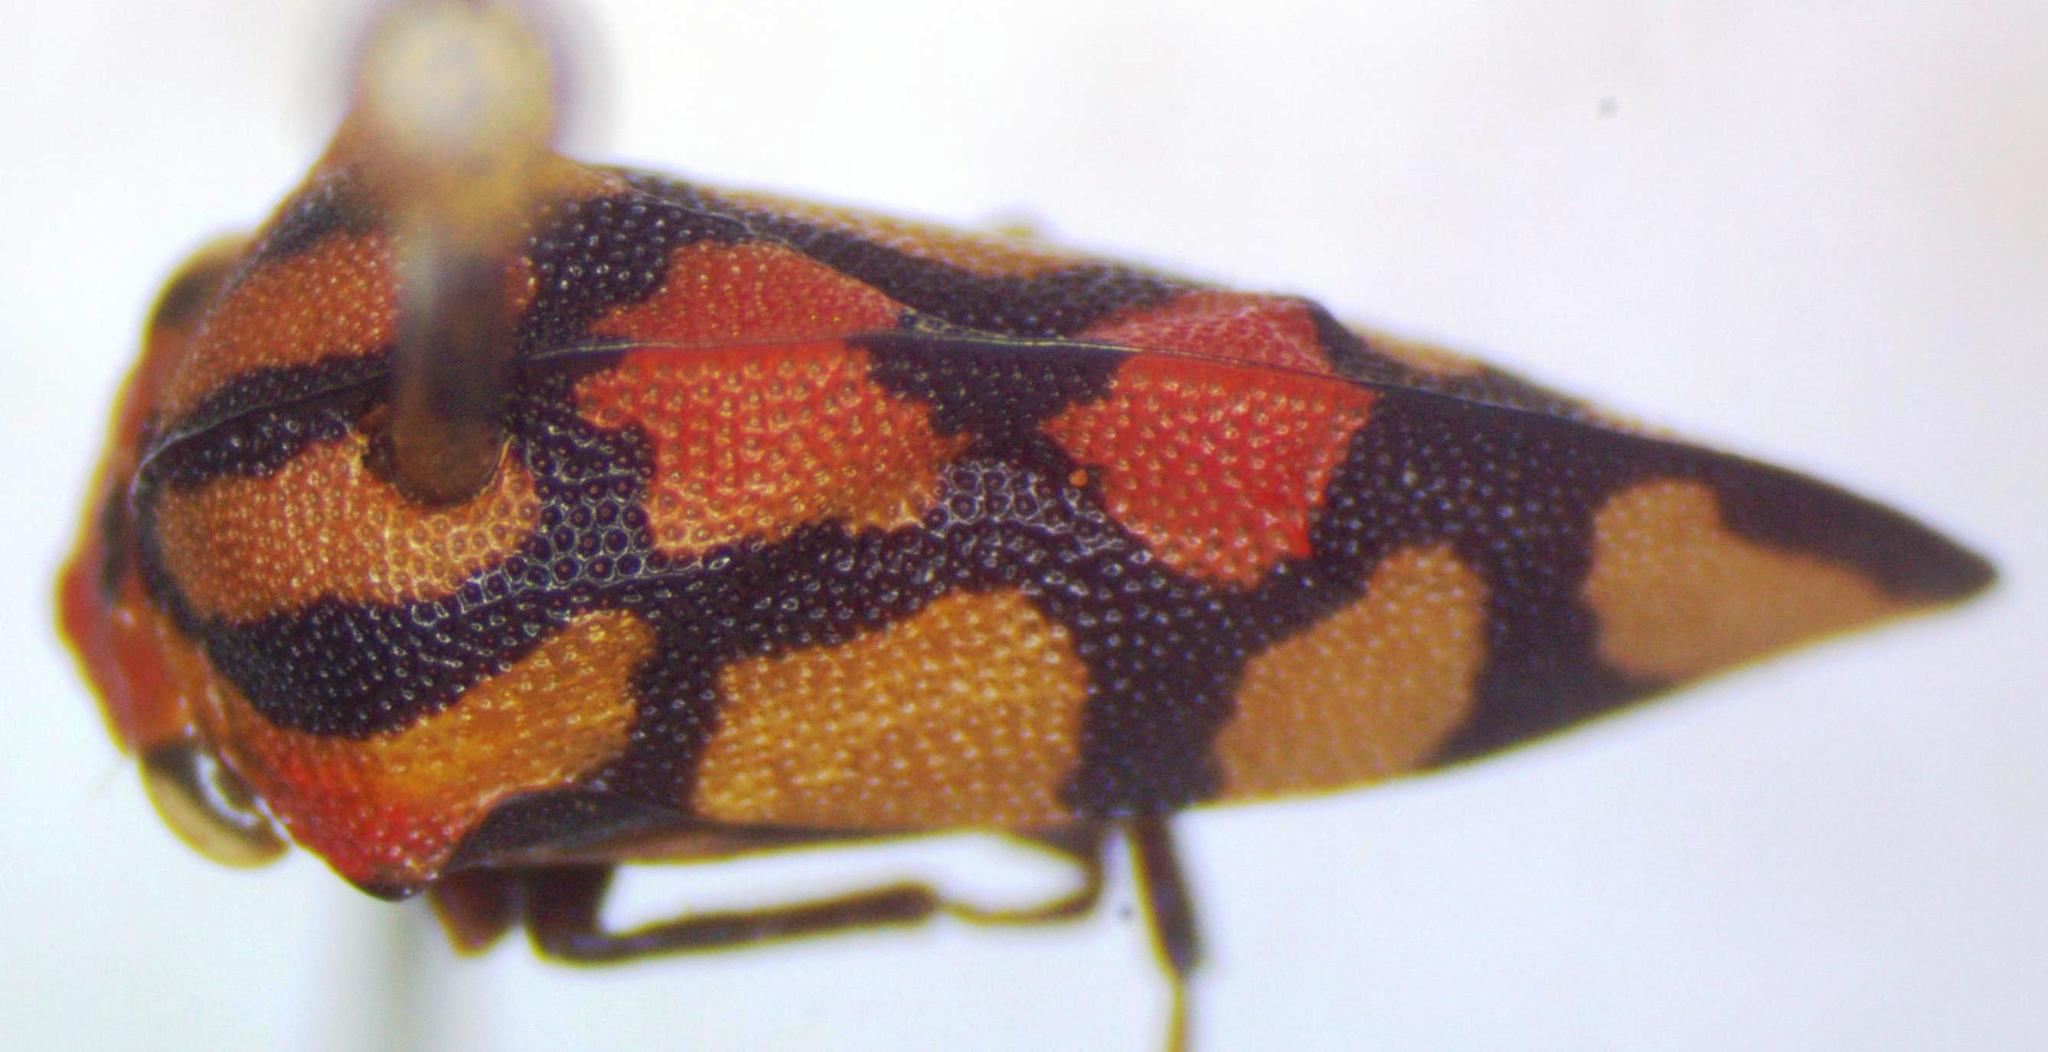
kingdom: Animalia
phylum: Arthropoda
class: Insecta
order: Hemiptera
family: Membracidae
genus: Adippe
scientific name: Adippe zebrina
